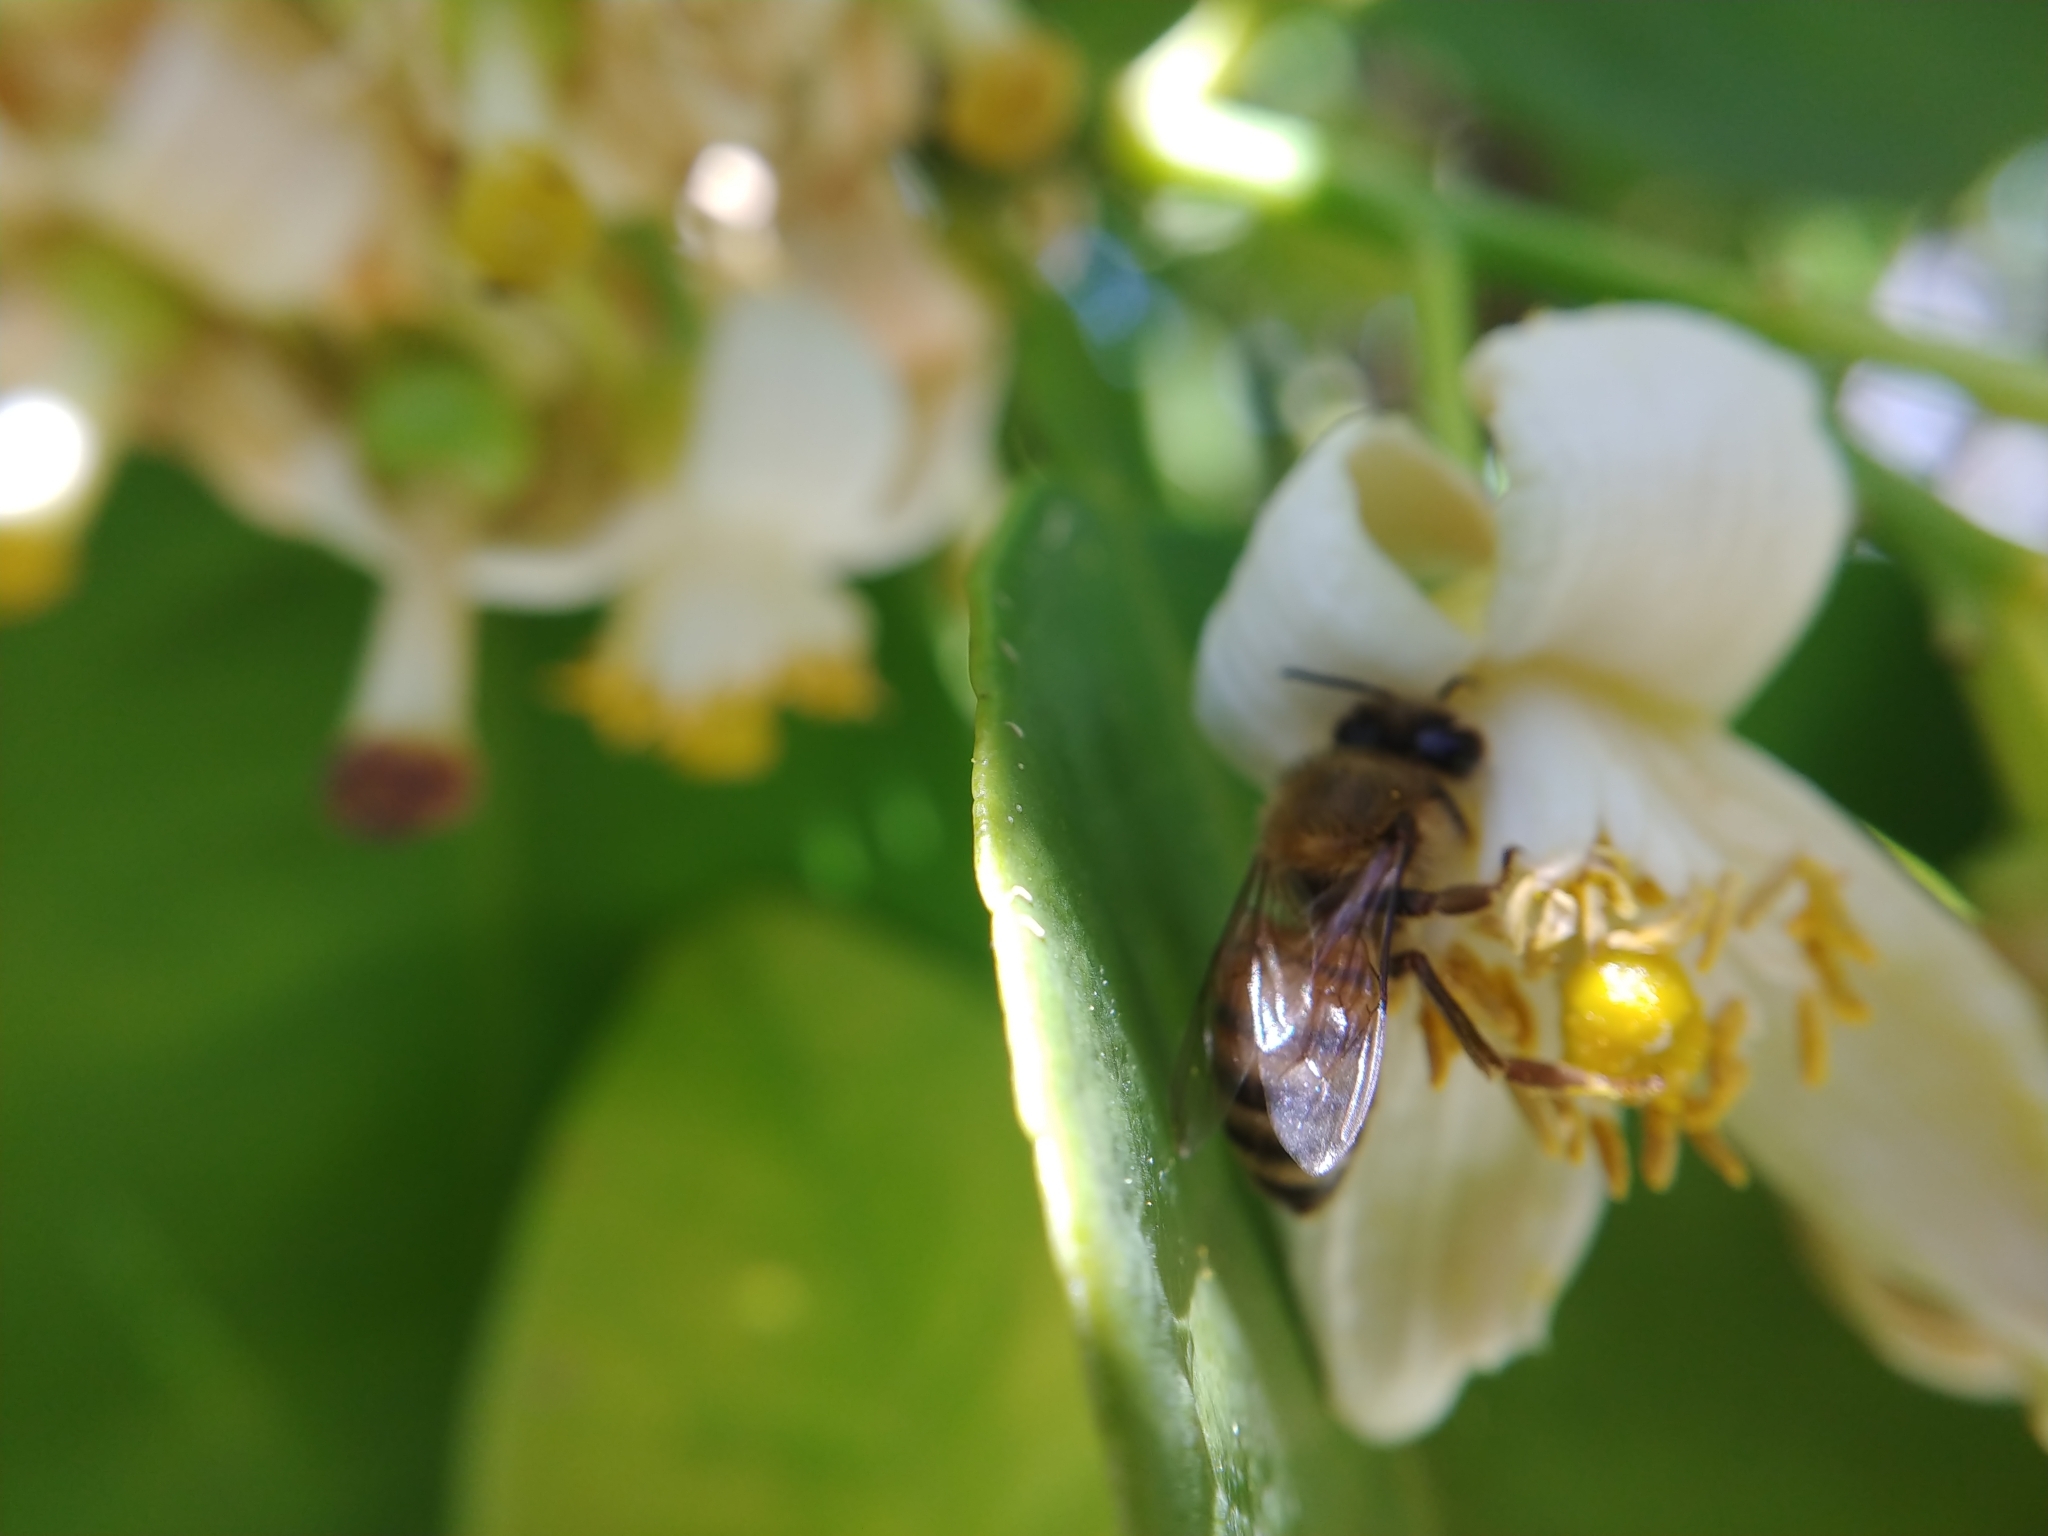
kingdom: Animalia
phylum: Arthropoda
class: Insecta
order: Hymenoptera
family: Apidae
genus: Apis
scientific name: Apis mellifera
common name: Honey bee
